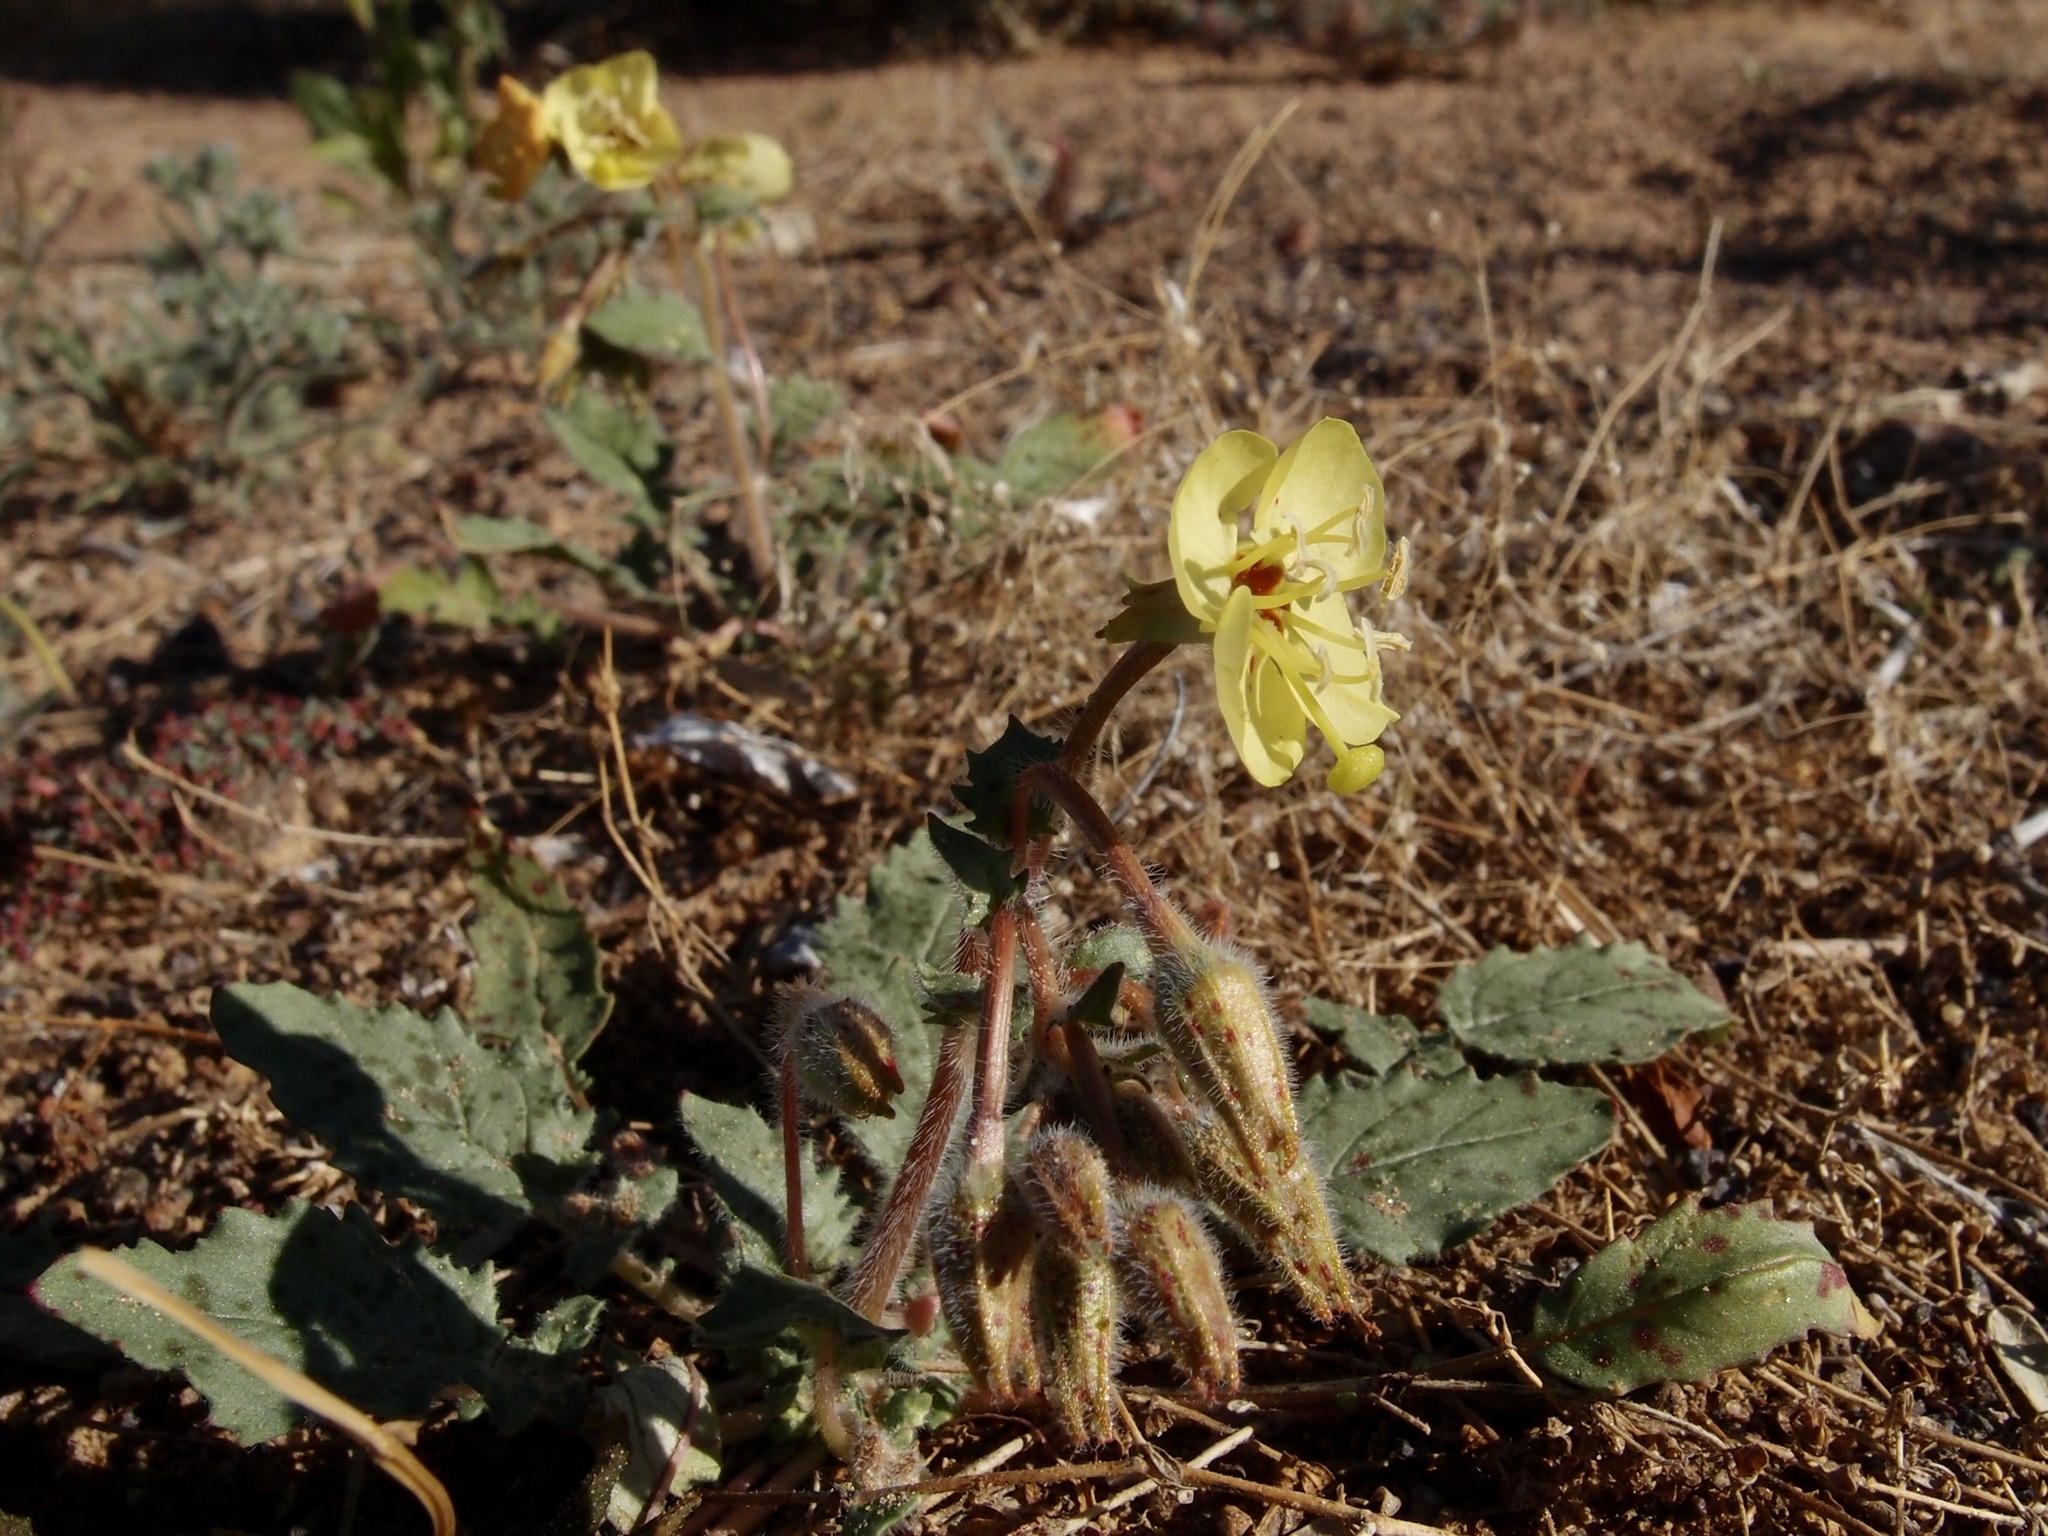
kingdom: Plantae
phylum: Tracheophyta
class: Magnoliopsida
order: Myrtales
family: Onagraceae
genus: Chylismia
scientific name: Chylismia claviformis
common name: Browneyes
